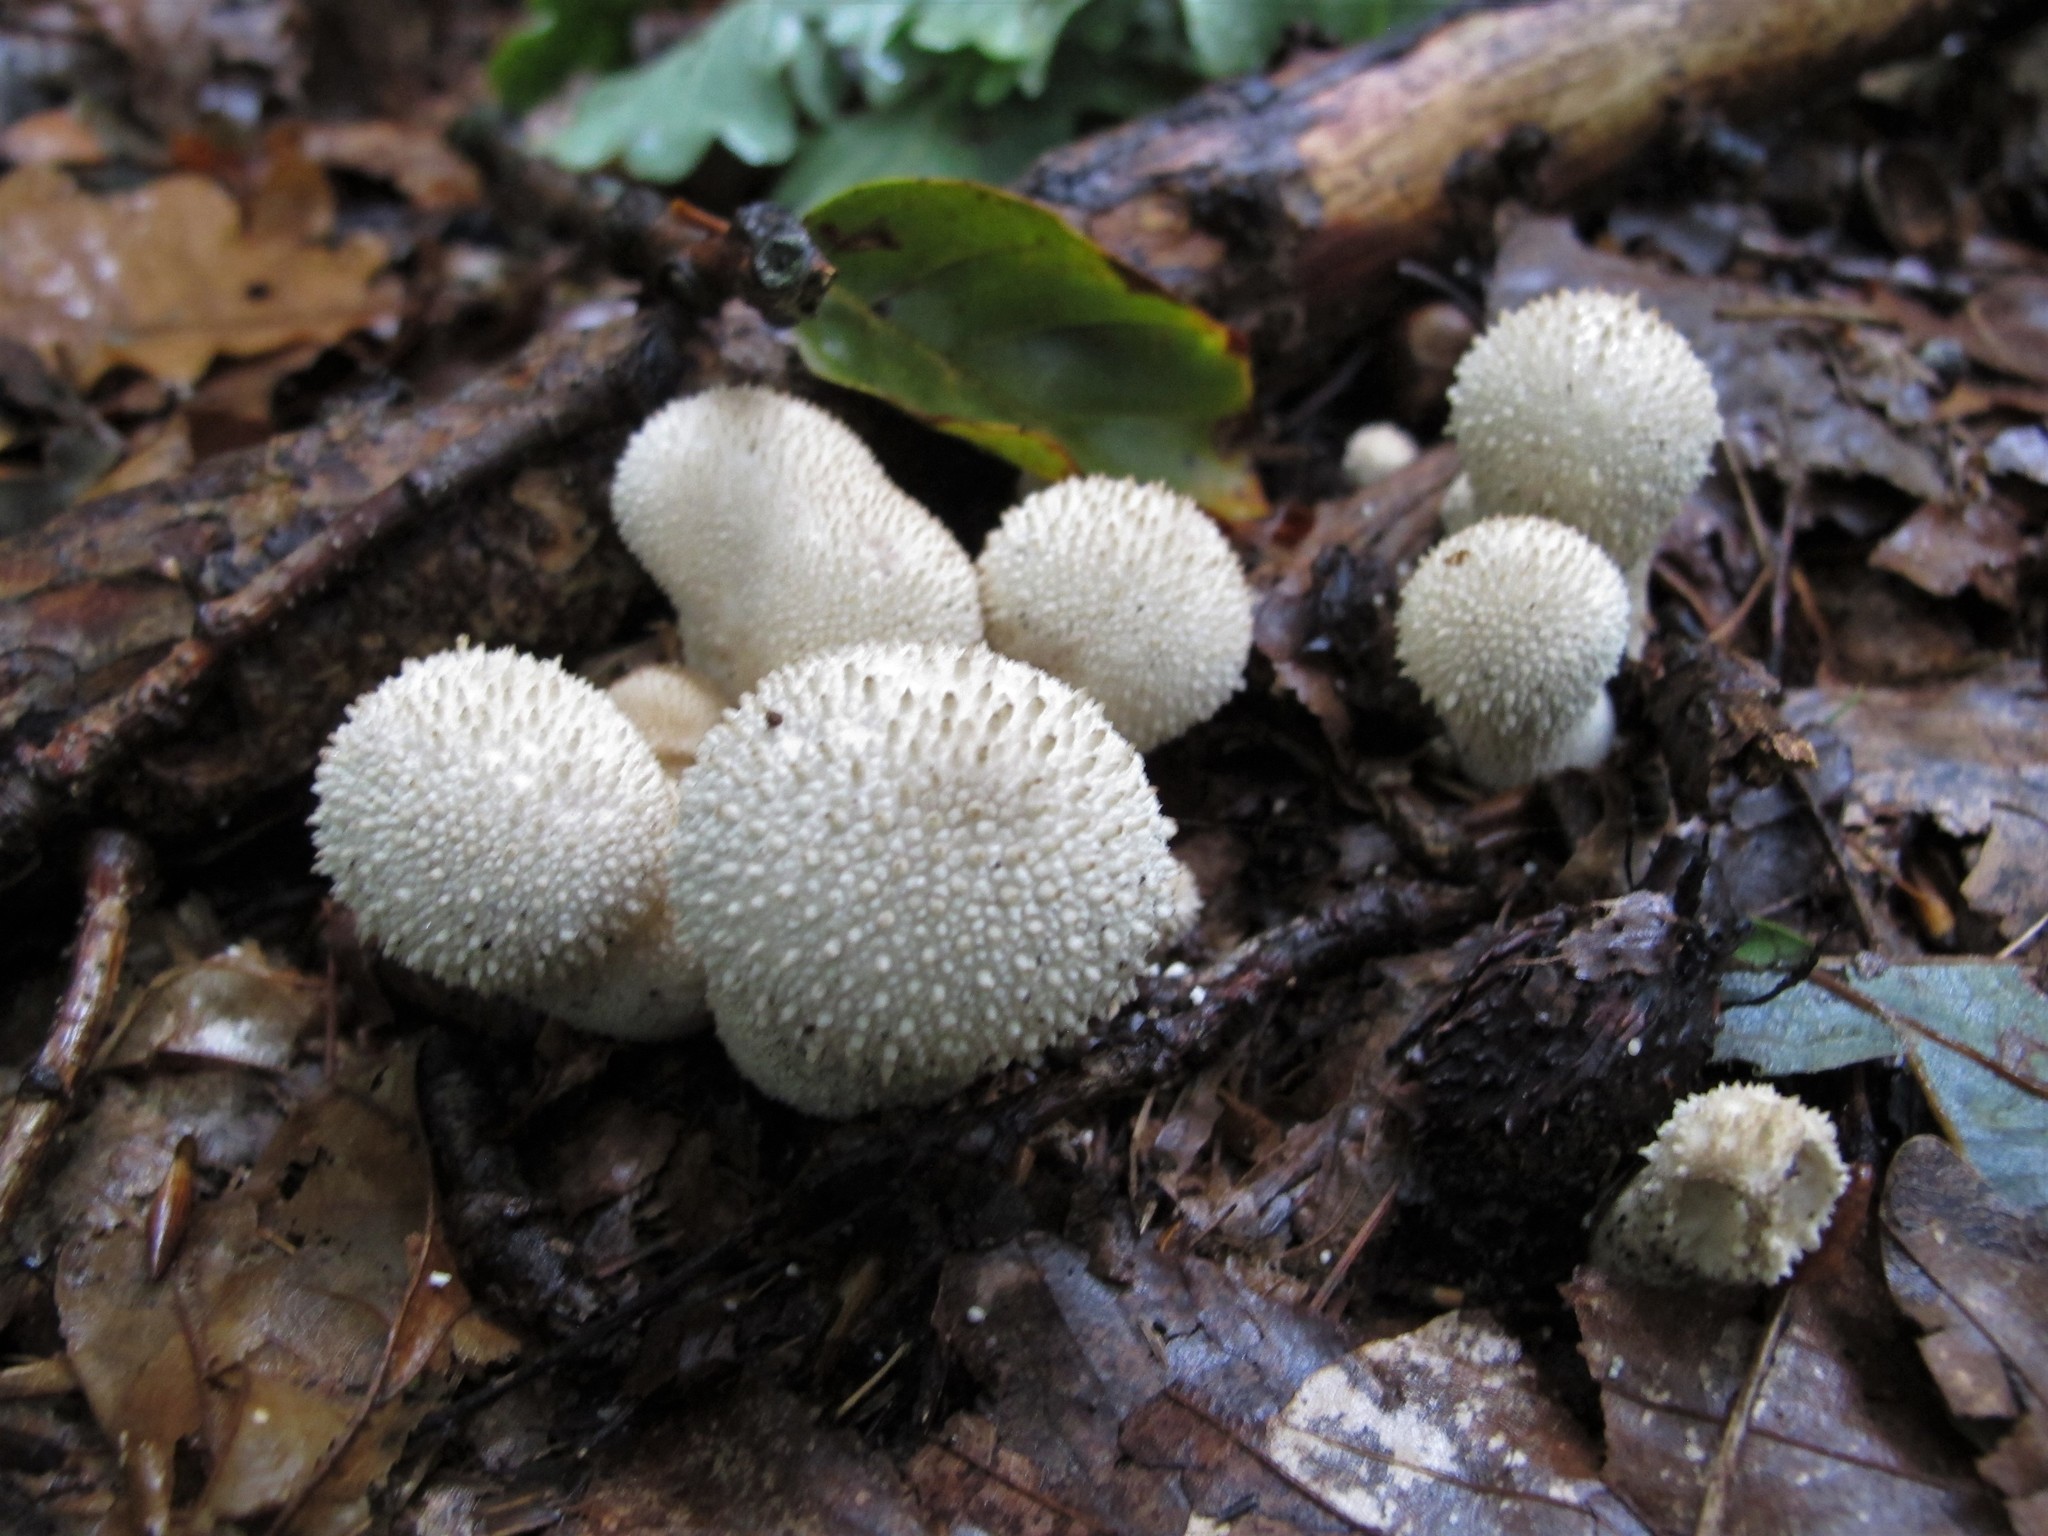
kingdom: Fungi
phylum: Basidiomycota
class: Agaricomycetes
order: Agaricales
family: Lycoperdaceae
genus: Lycoperdon
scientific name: Lycoperdon perlatum
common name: Common puffball
